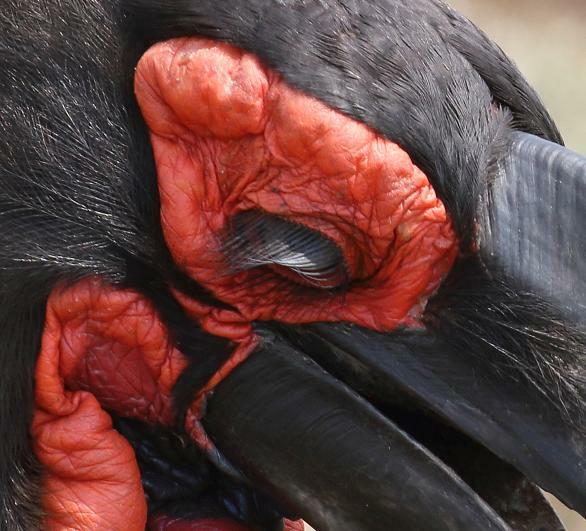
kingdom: Animalia
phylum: Chordata
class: Aves
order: Bucerotiformes
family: Bucorvidae
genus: Bucorvus
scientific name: Bucorvus leadbeateri
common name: Southern ground-hornbill
